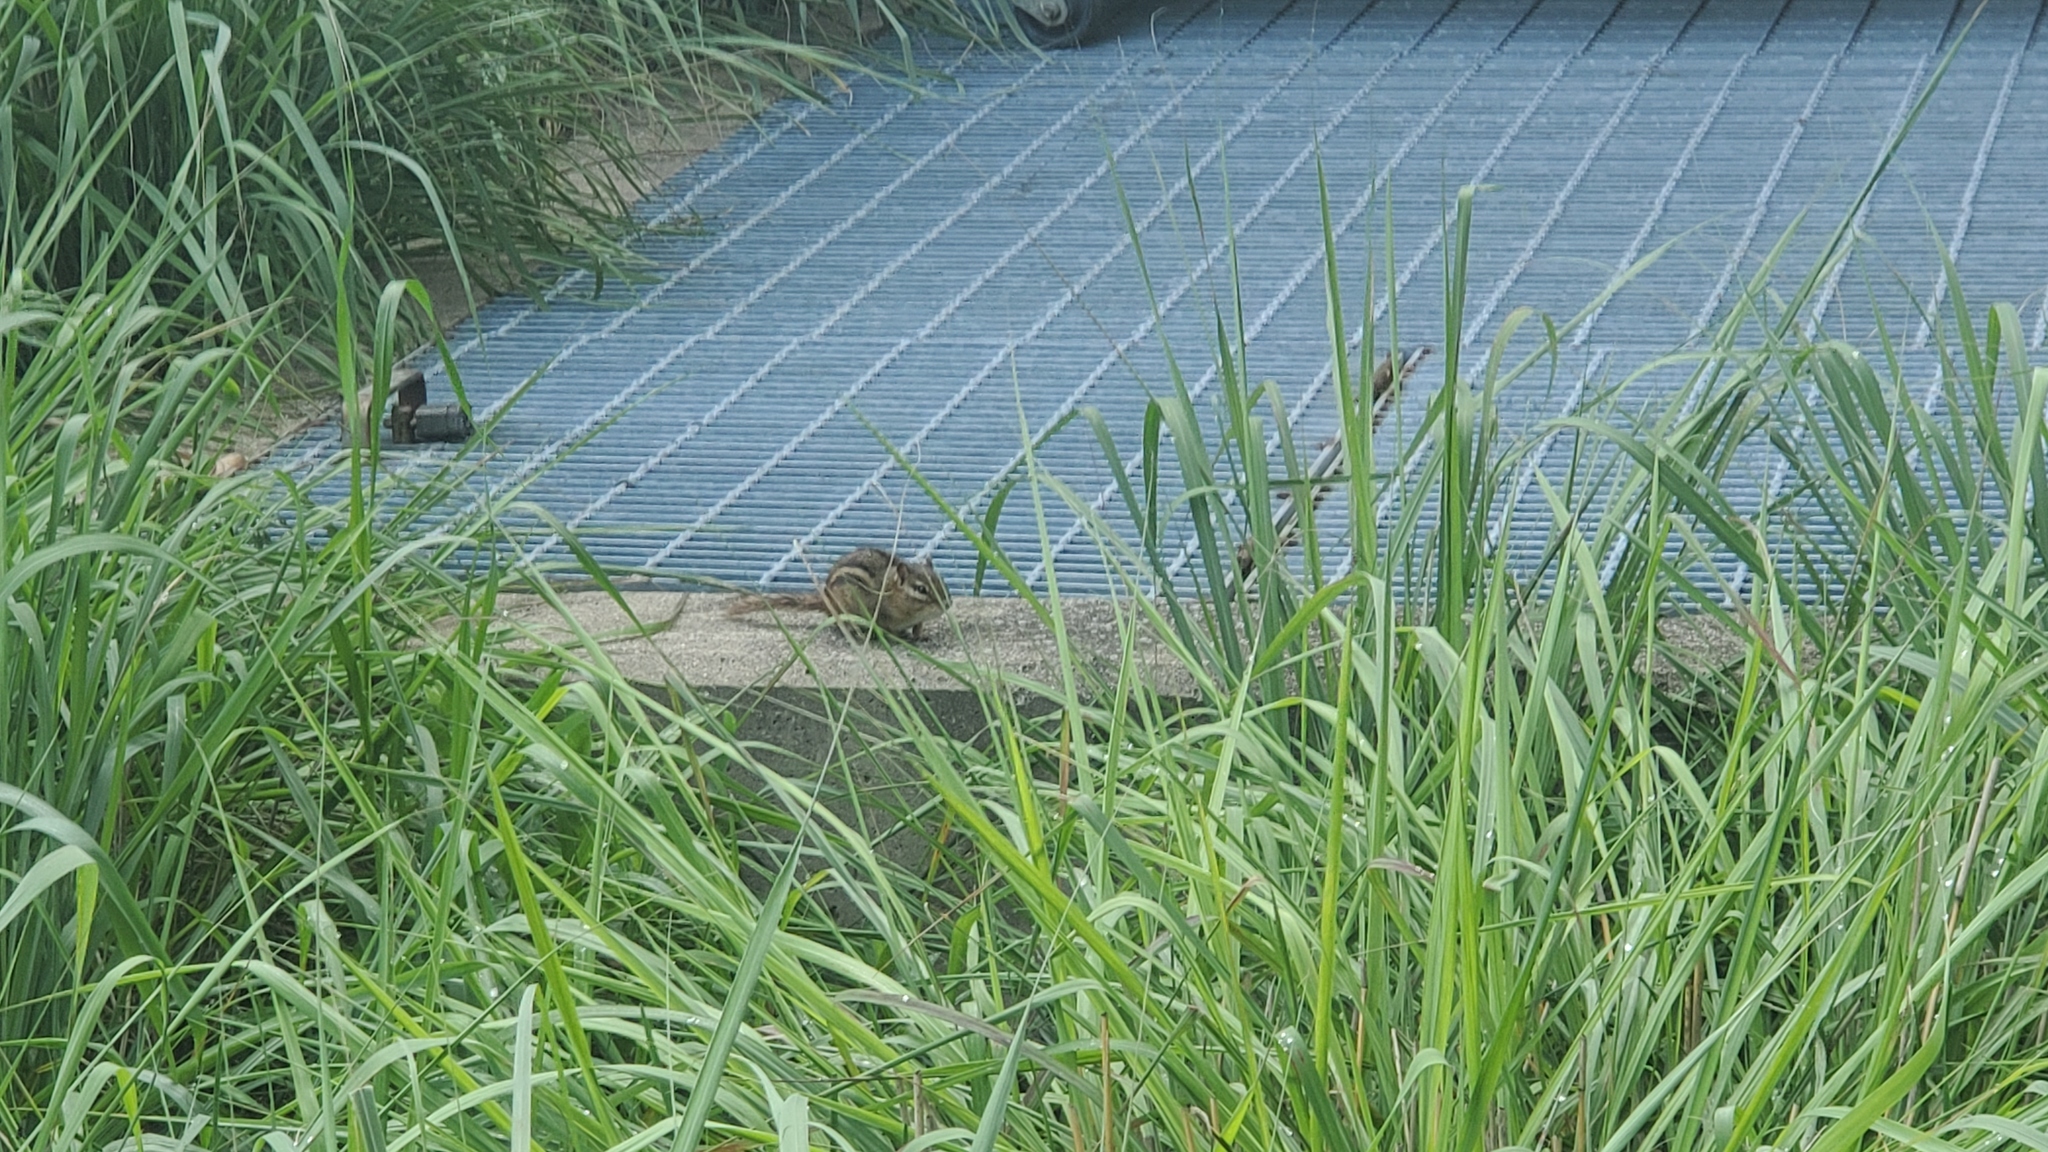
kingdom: Animalia
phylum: Chordata
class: Mammalia
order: Rodentia
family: Sciuridae
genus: Tamias
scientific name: Tamias striatus
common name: Eastern chipmunk
